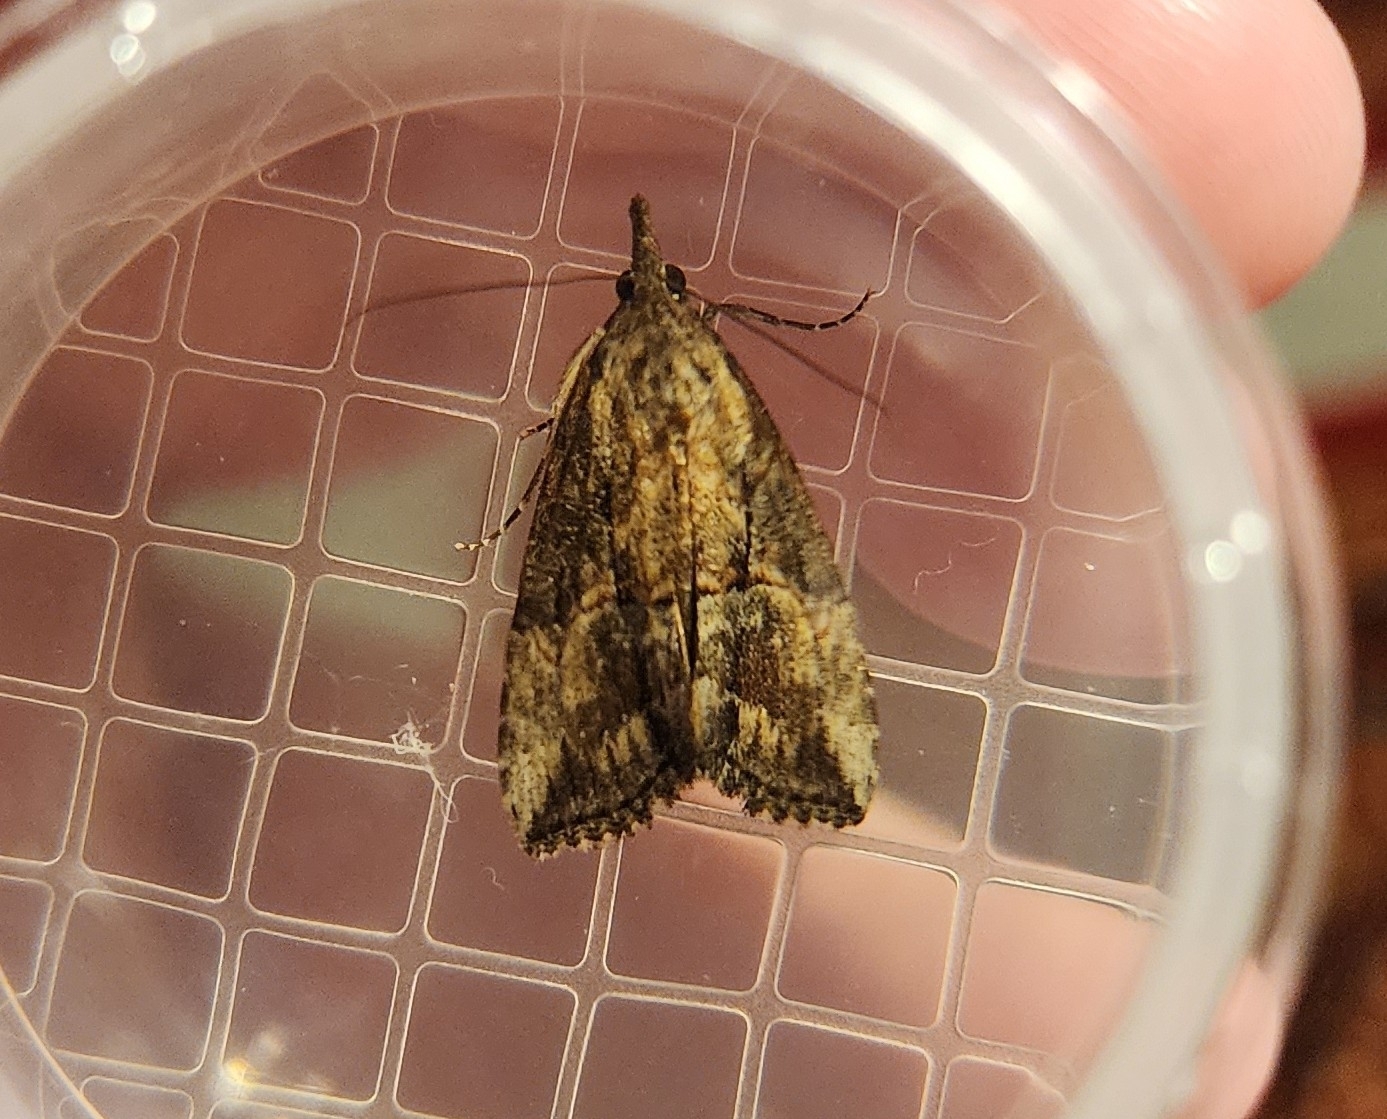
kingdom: Animalia
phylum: Arthropoda
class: Insecta
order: Lepidoptera
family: Erebidae
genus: Hypena
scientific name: Hypena scabra
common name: Green cloverworm
